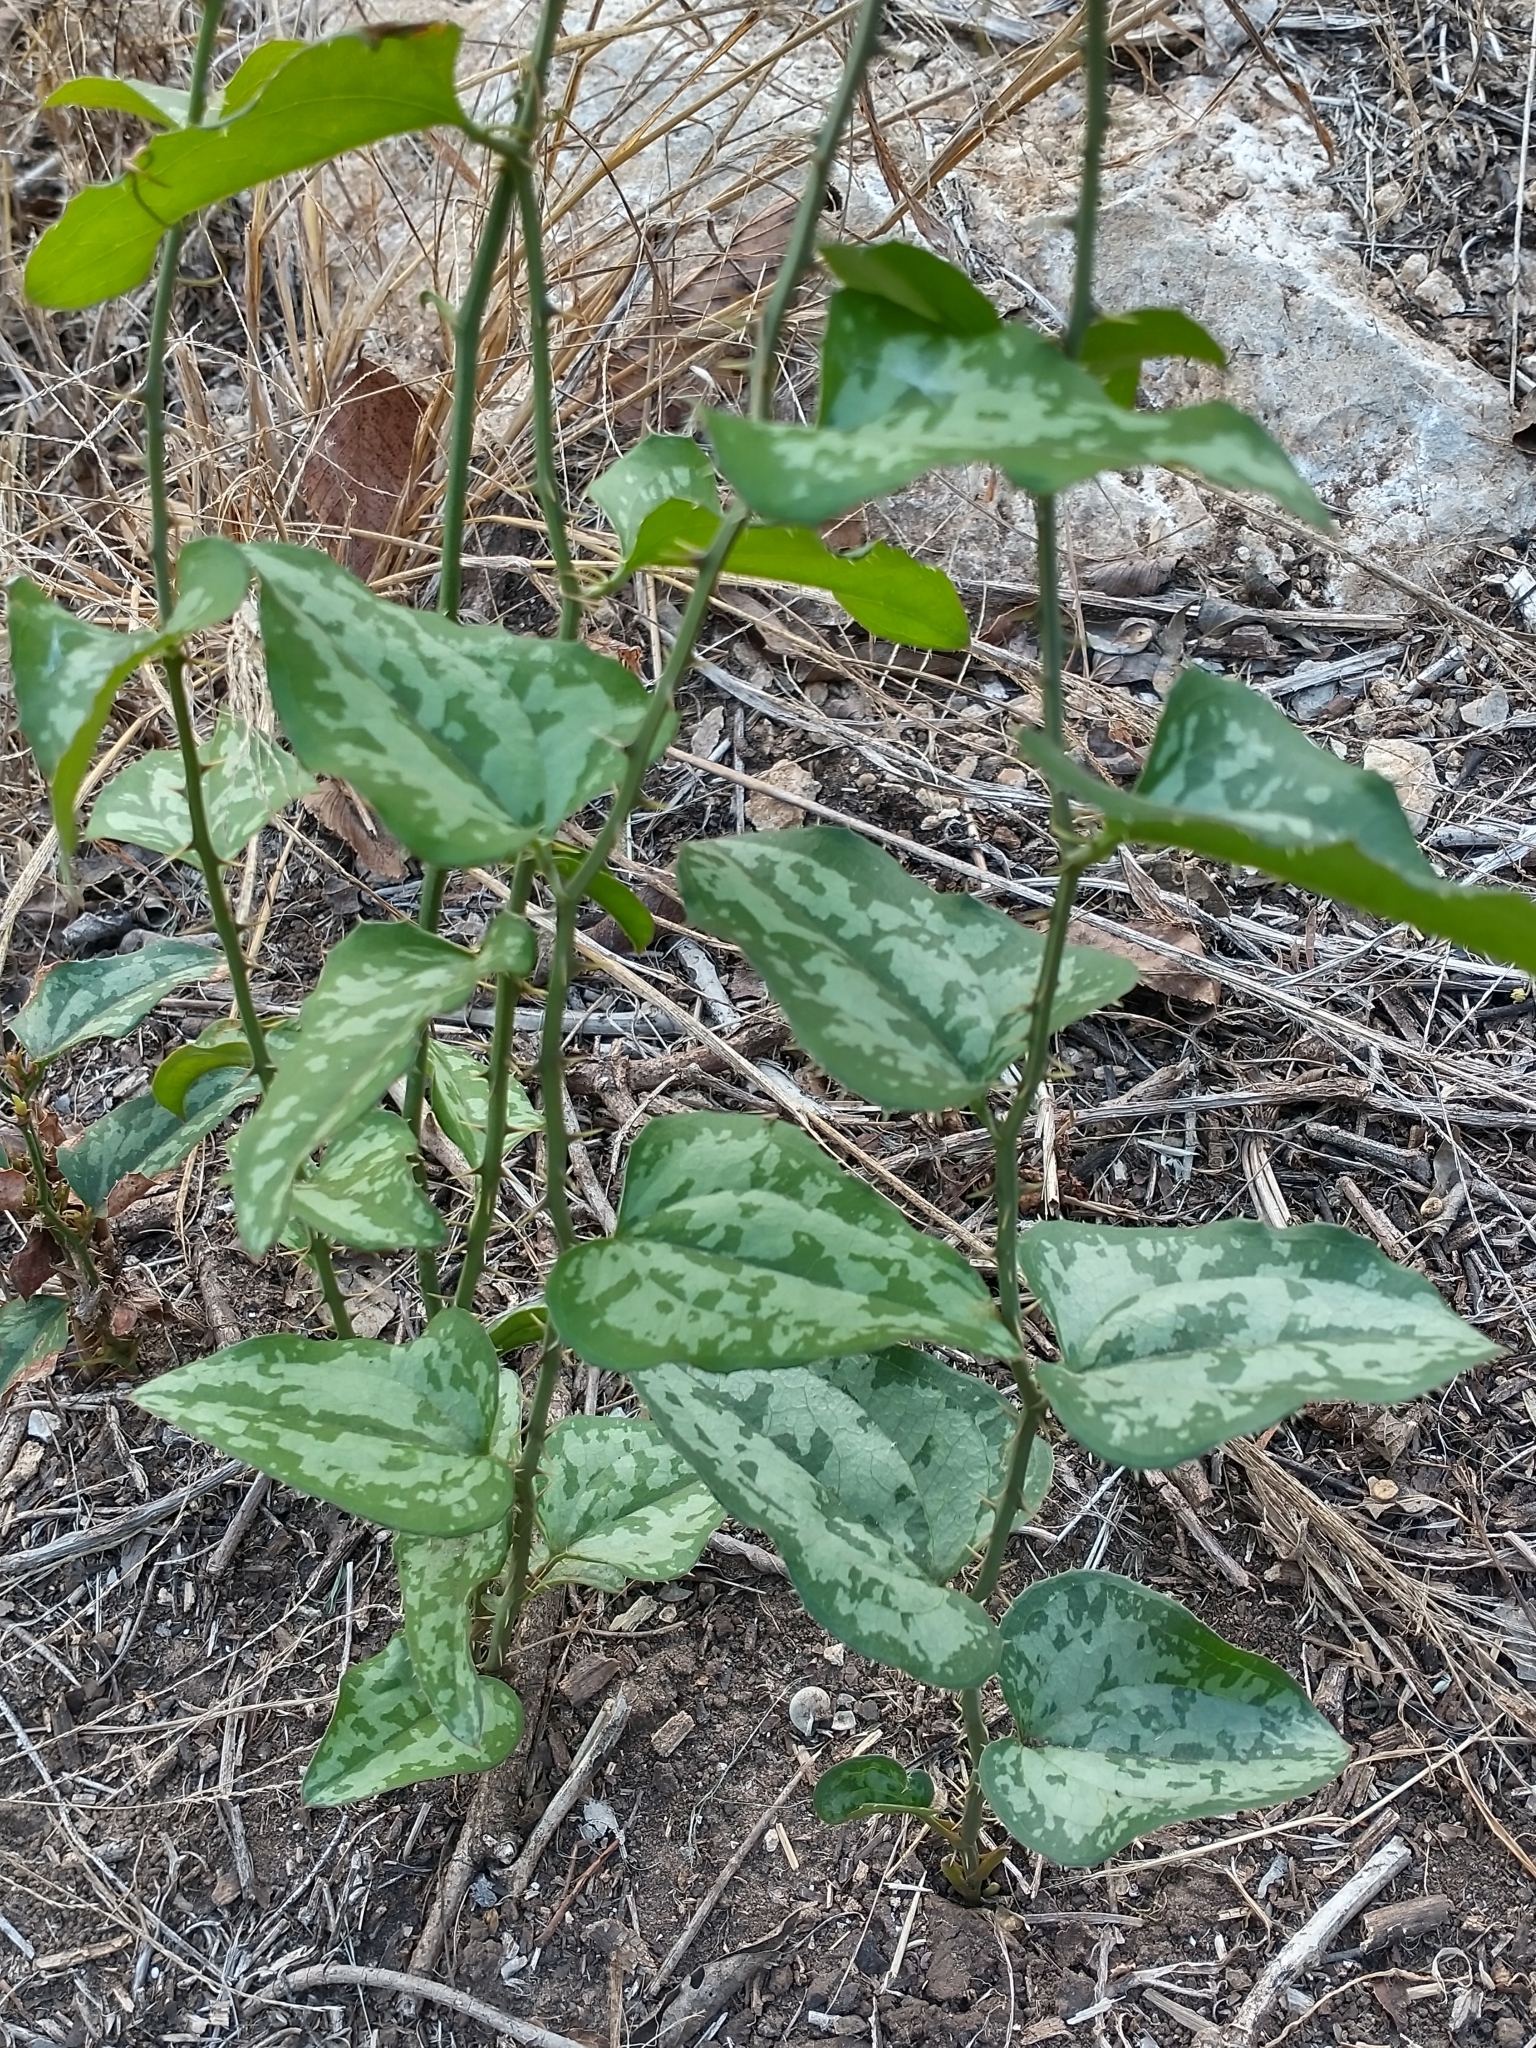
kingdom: Plantae
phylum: Tracheophyta
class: Liliopsida
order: Liliales
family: Smilacaceae
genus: Smilax
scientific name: Smilax bona-nox
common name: Catbrier
